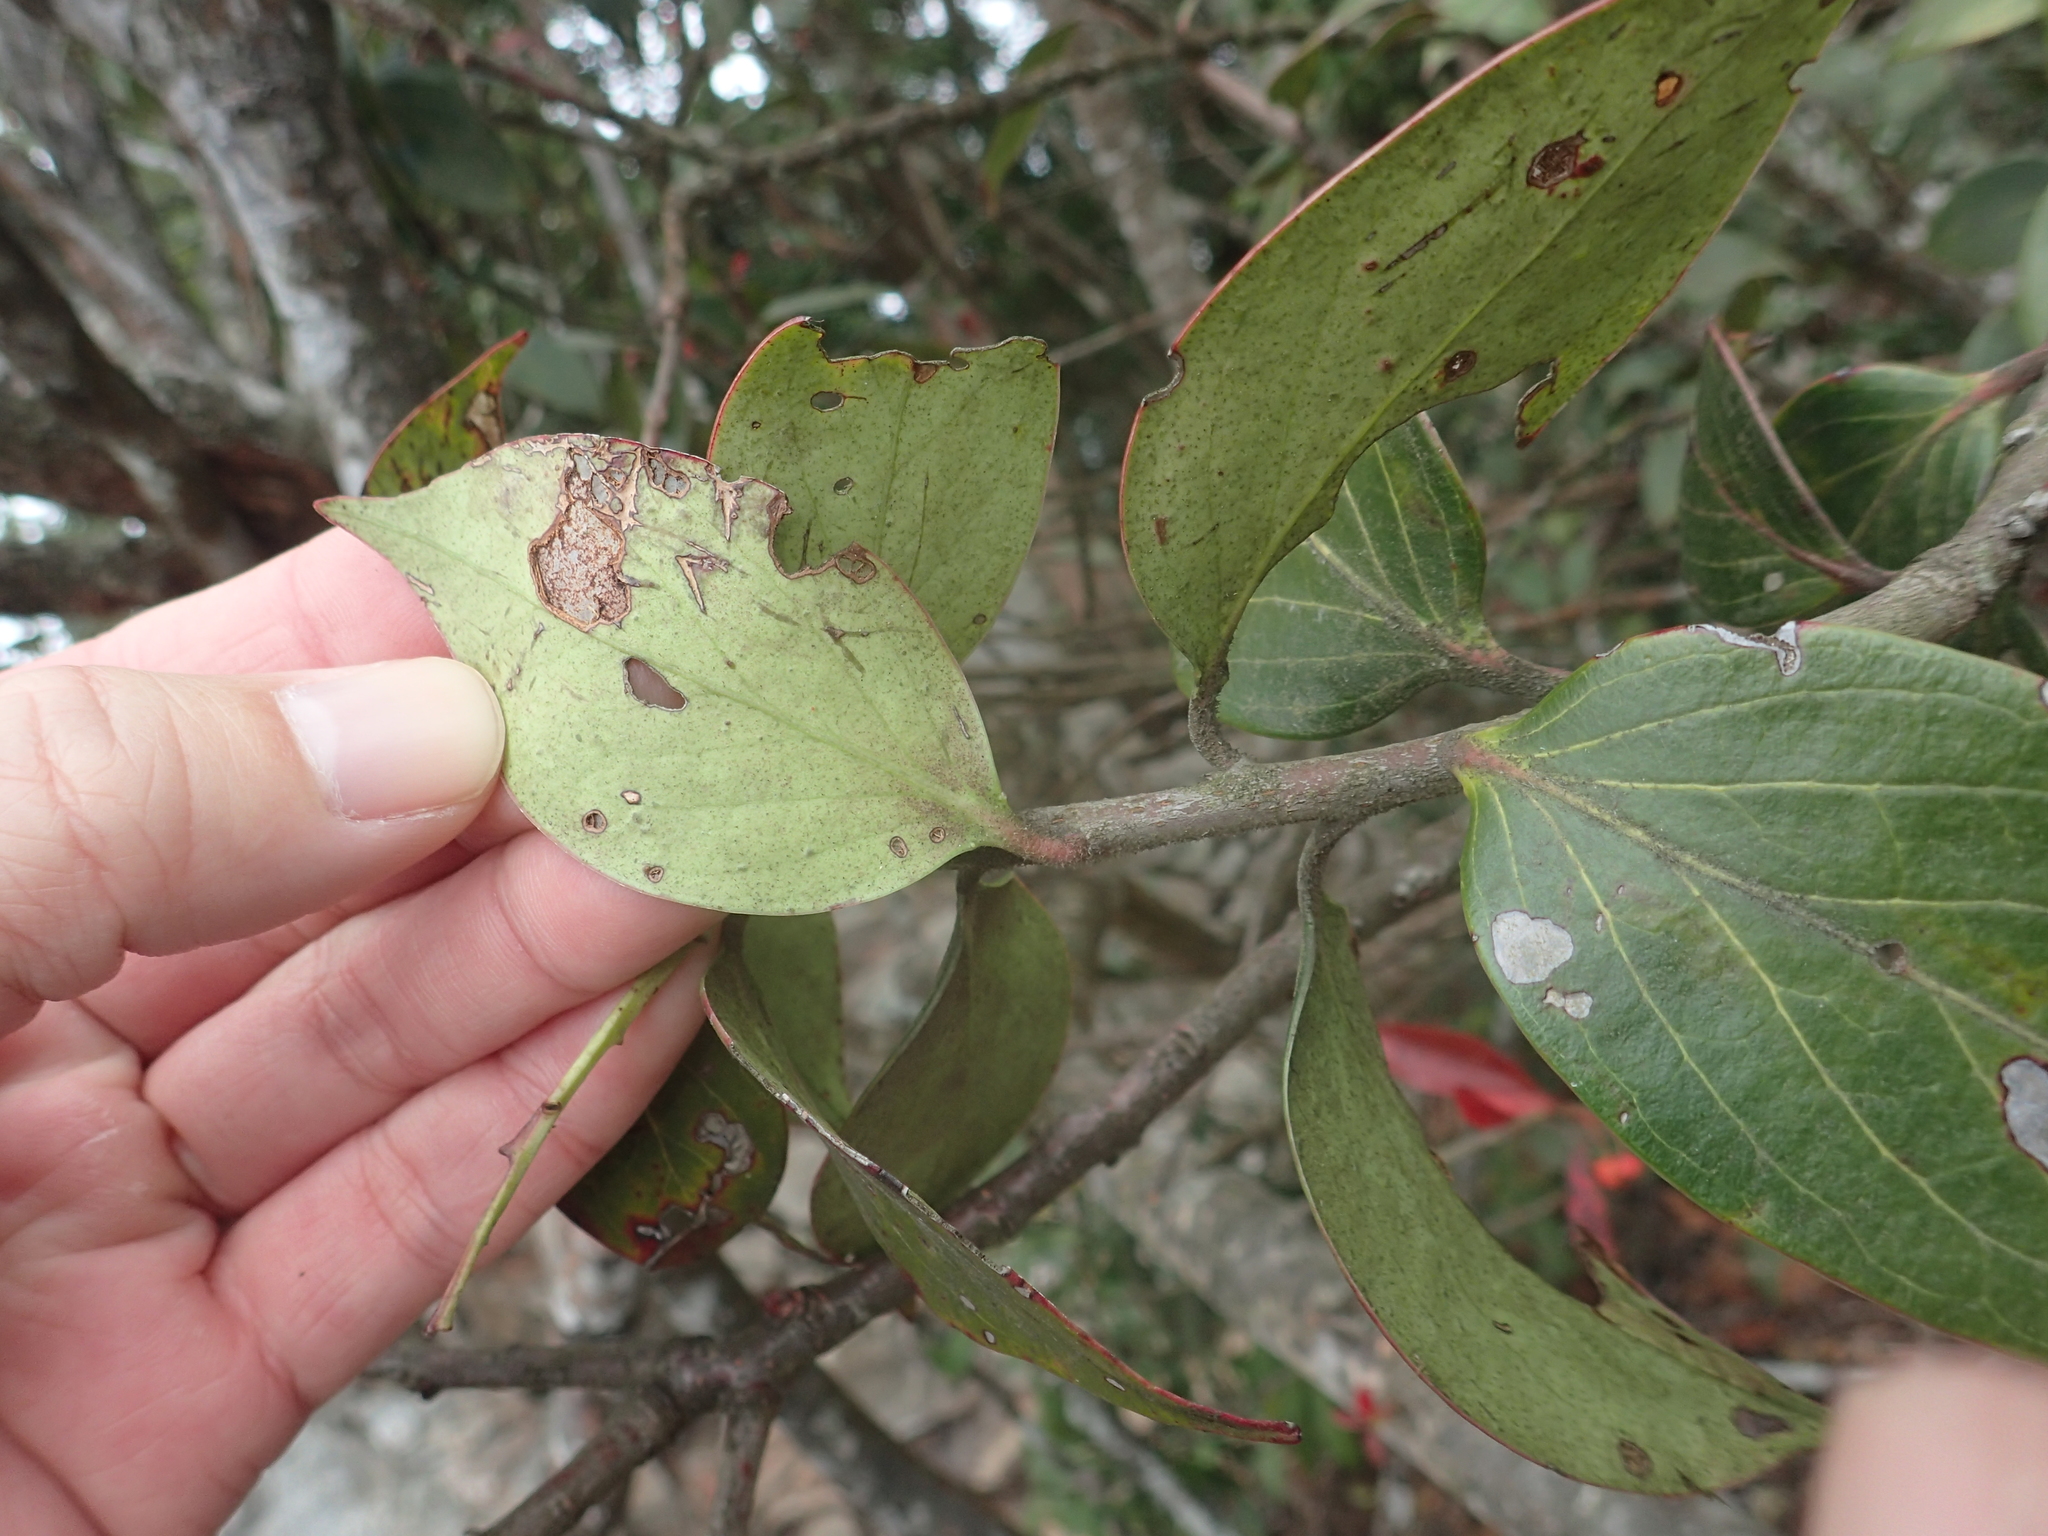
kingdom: Plantae
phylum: Tracheophyta
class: Magnoliopsida
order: Ericales
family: Ericaceae
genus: Vaccinium
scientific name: Vaccinium dunalianum
